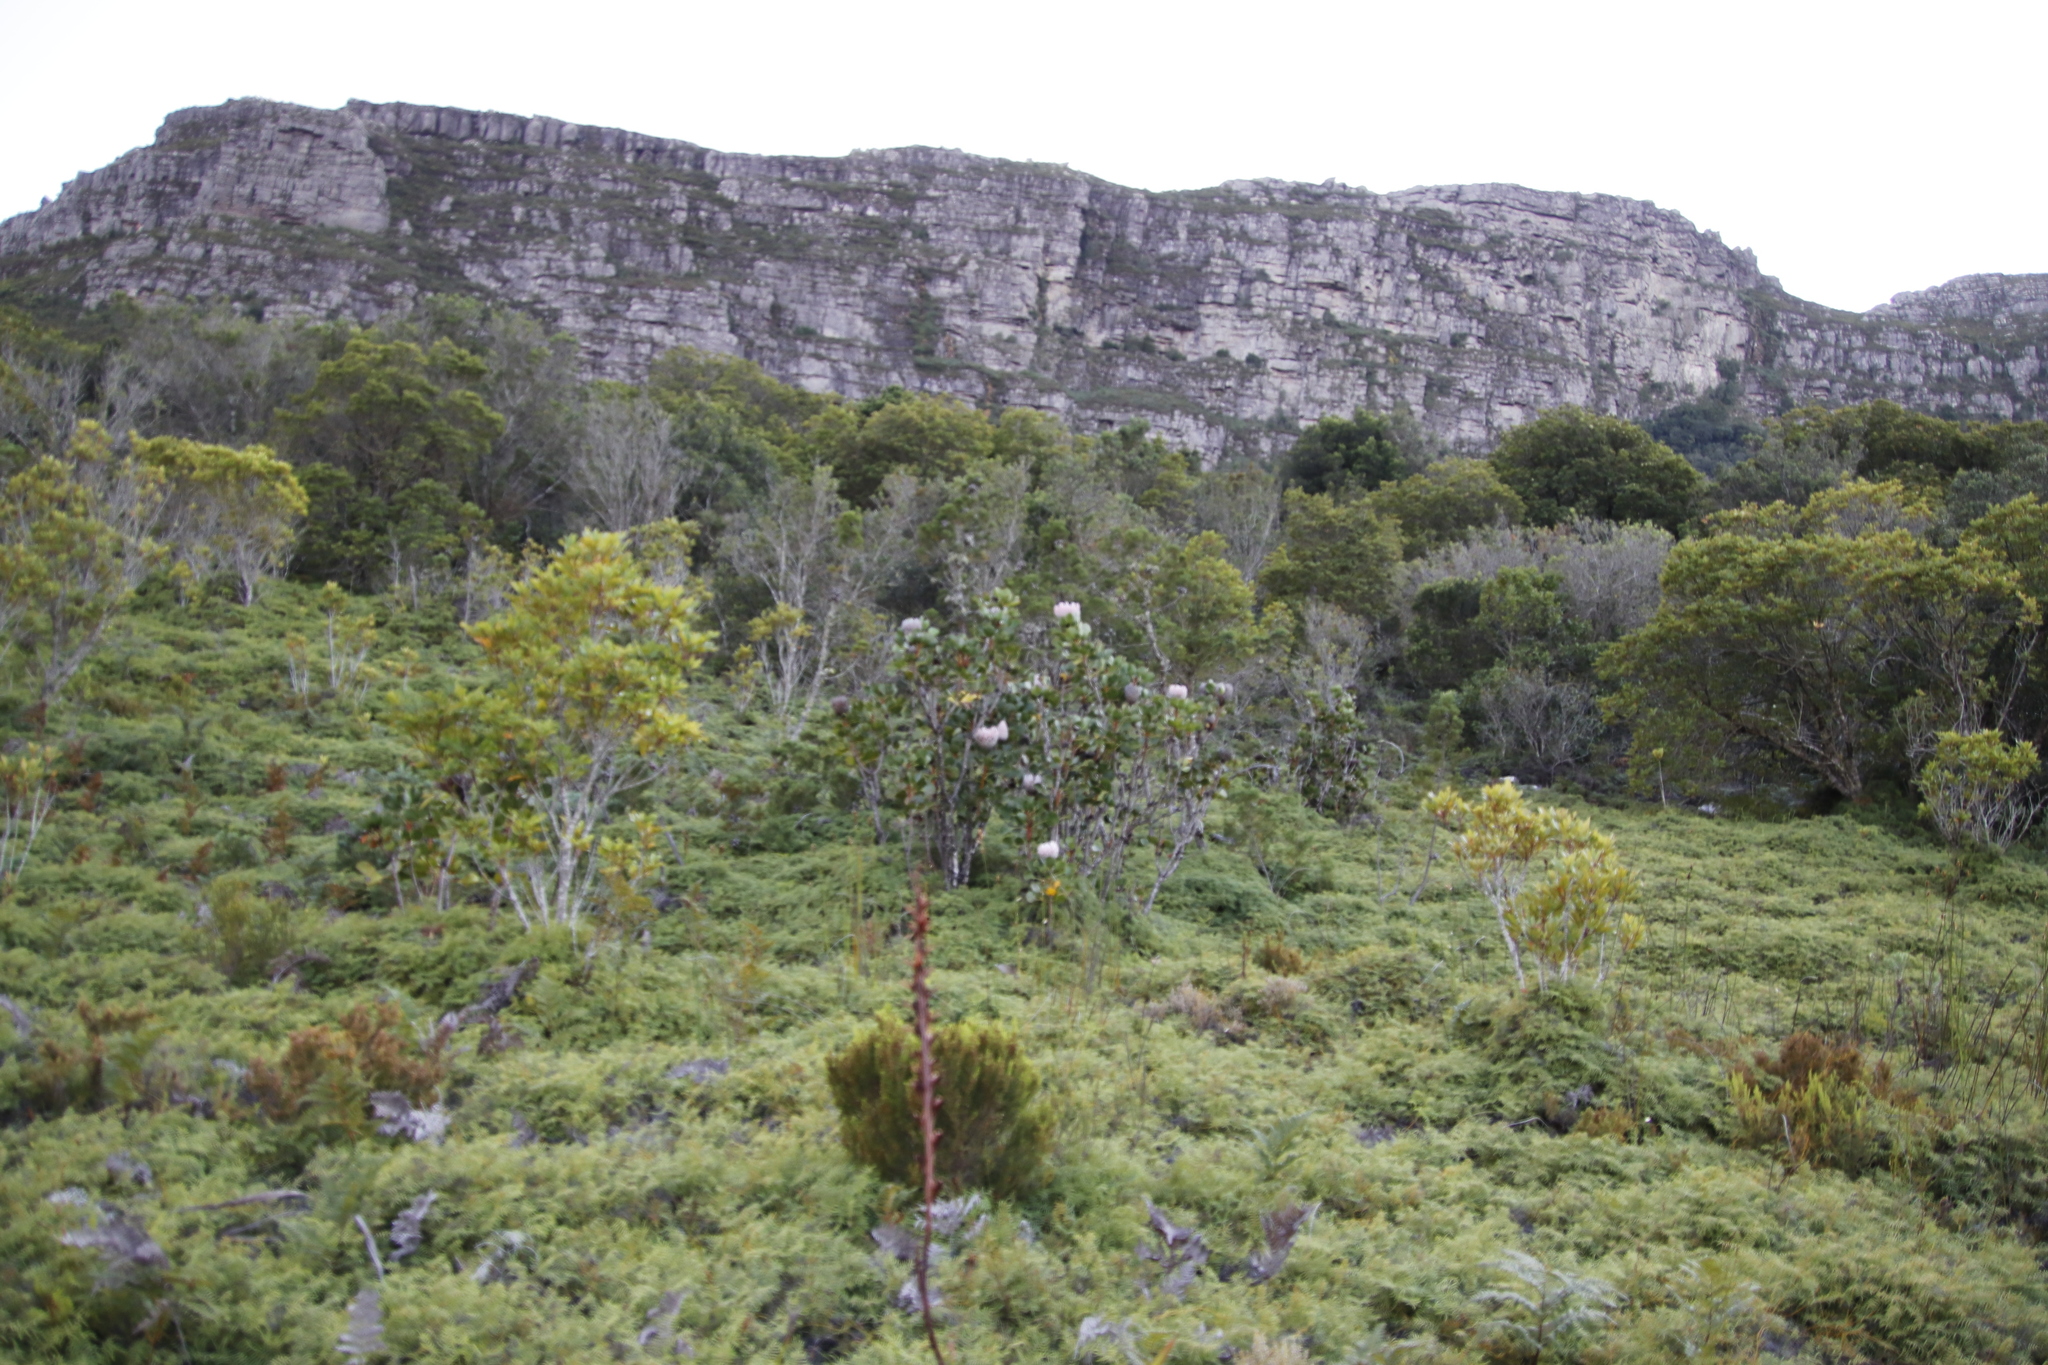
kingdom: Plantae
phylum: Tracheophyta
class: Magnoliopsida
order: Proteales
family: Proteaceae
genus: Protea
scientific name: Protea cynaroides
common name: King protea
